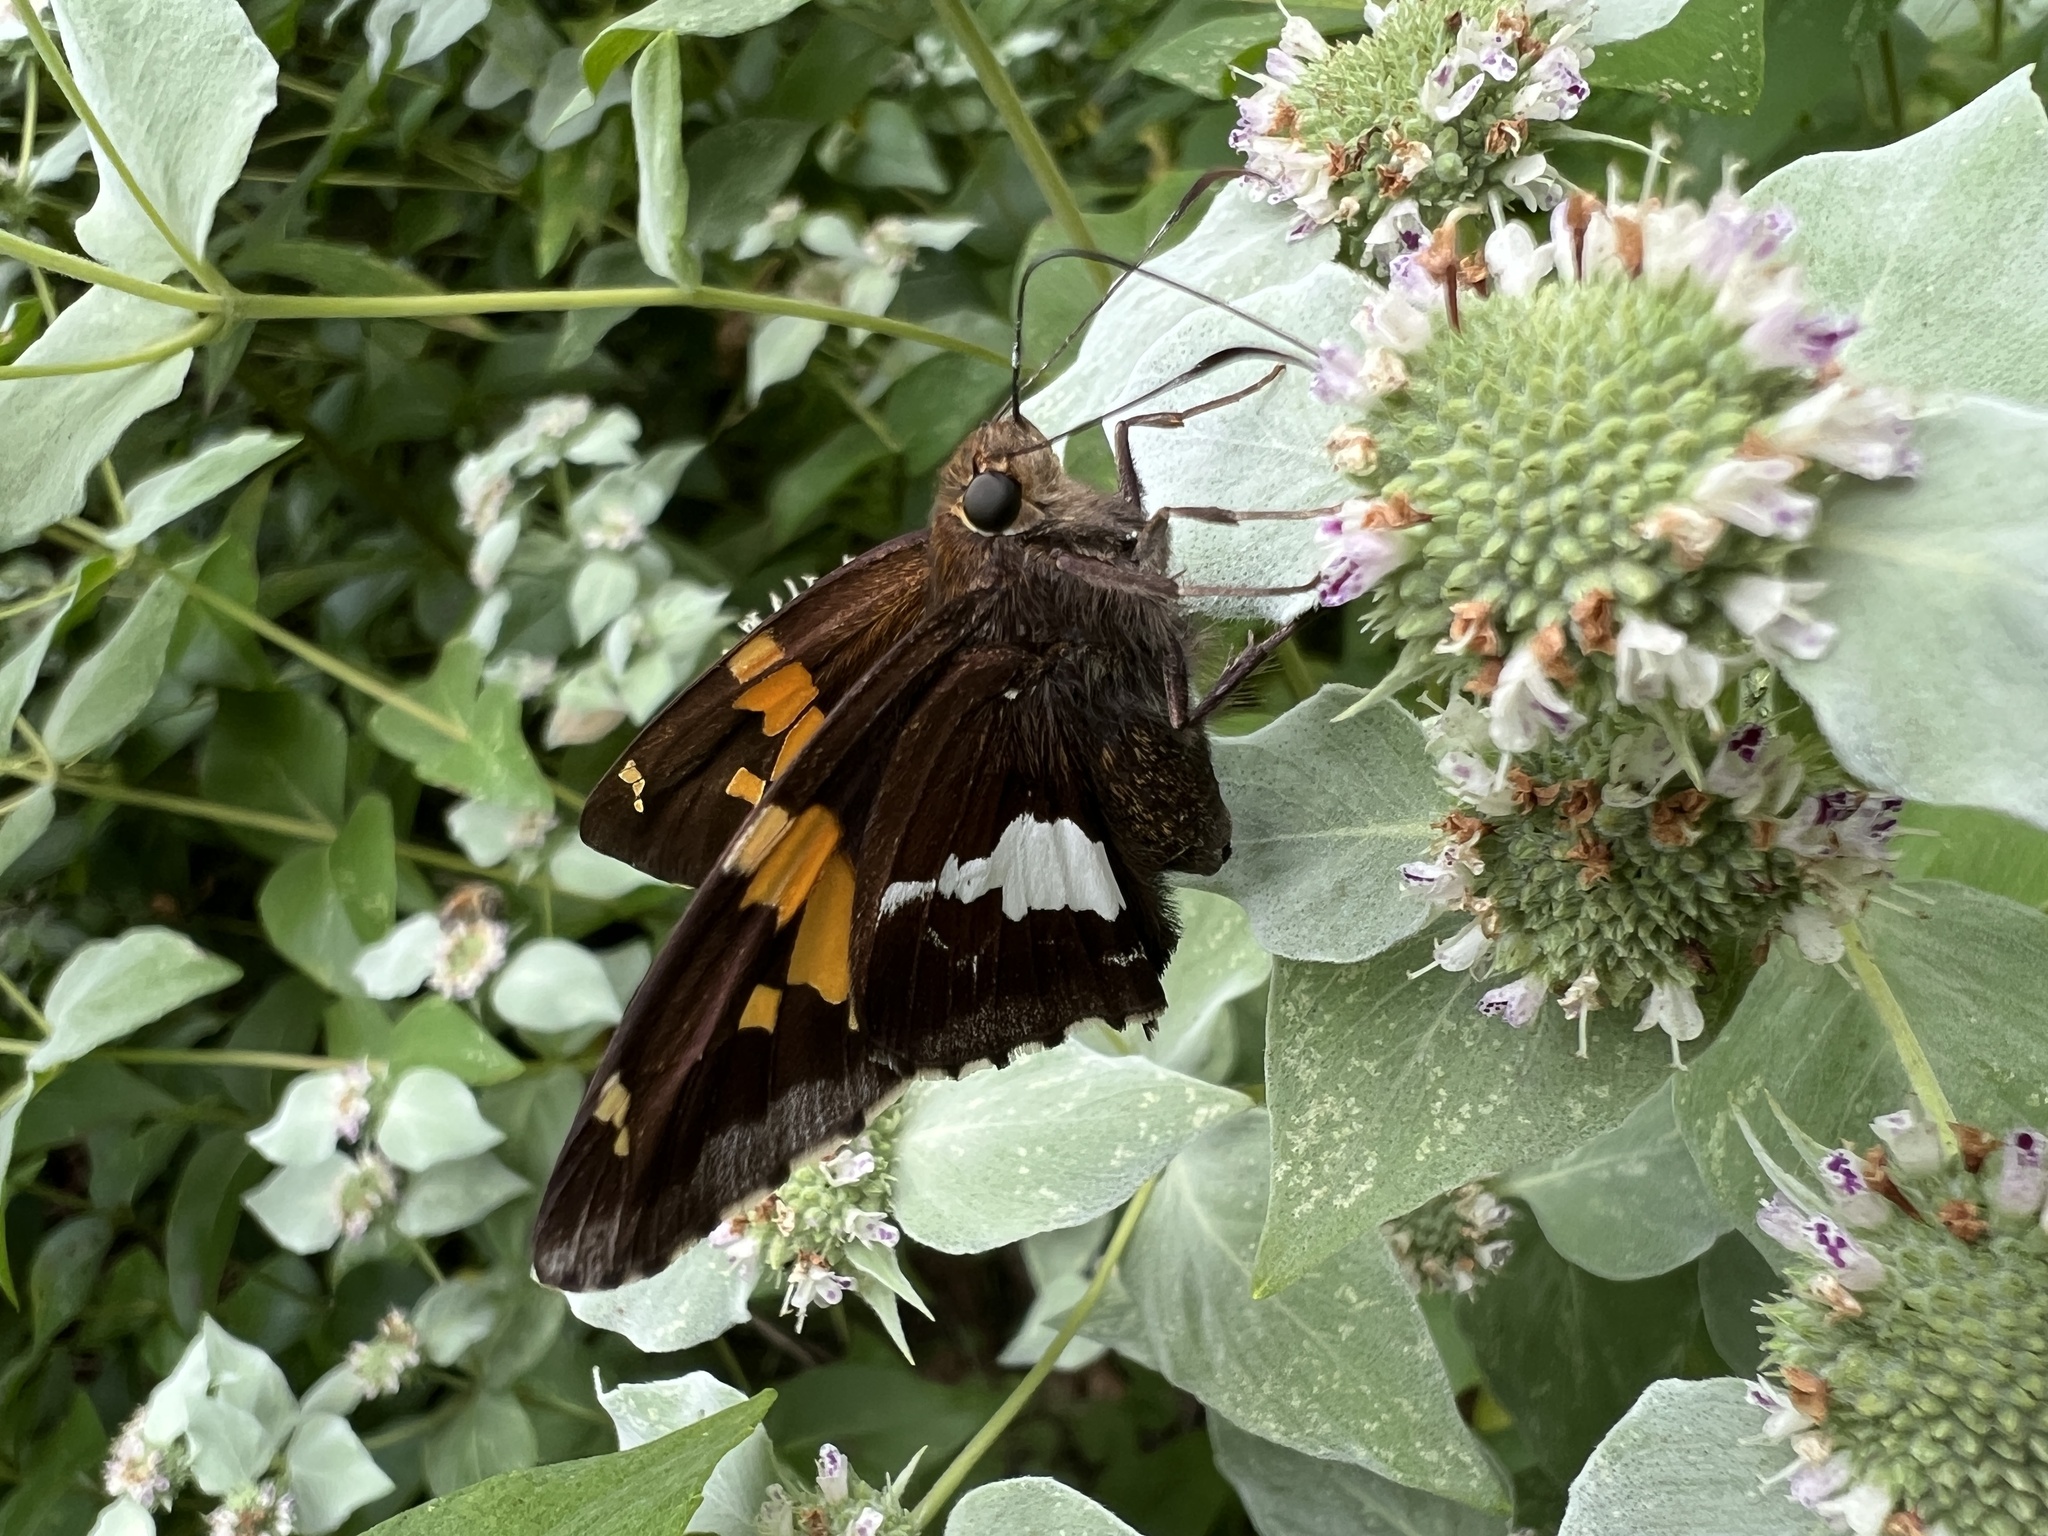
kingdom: Animalia
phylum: Arthropoda
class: Insecta
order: Lepidoptera
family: Hesperiidae
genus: Epargyreus
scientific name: Epargyreus clarus
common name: Silver-spotted skipper
